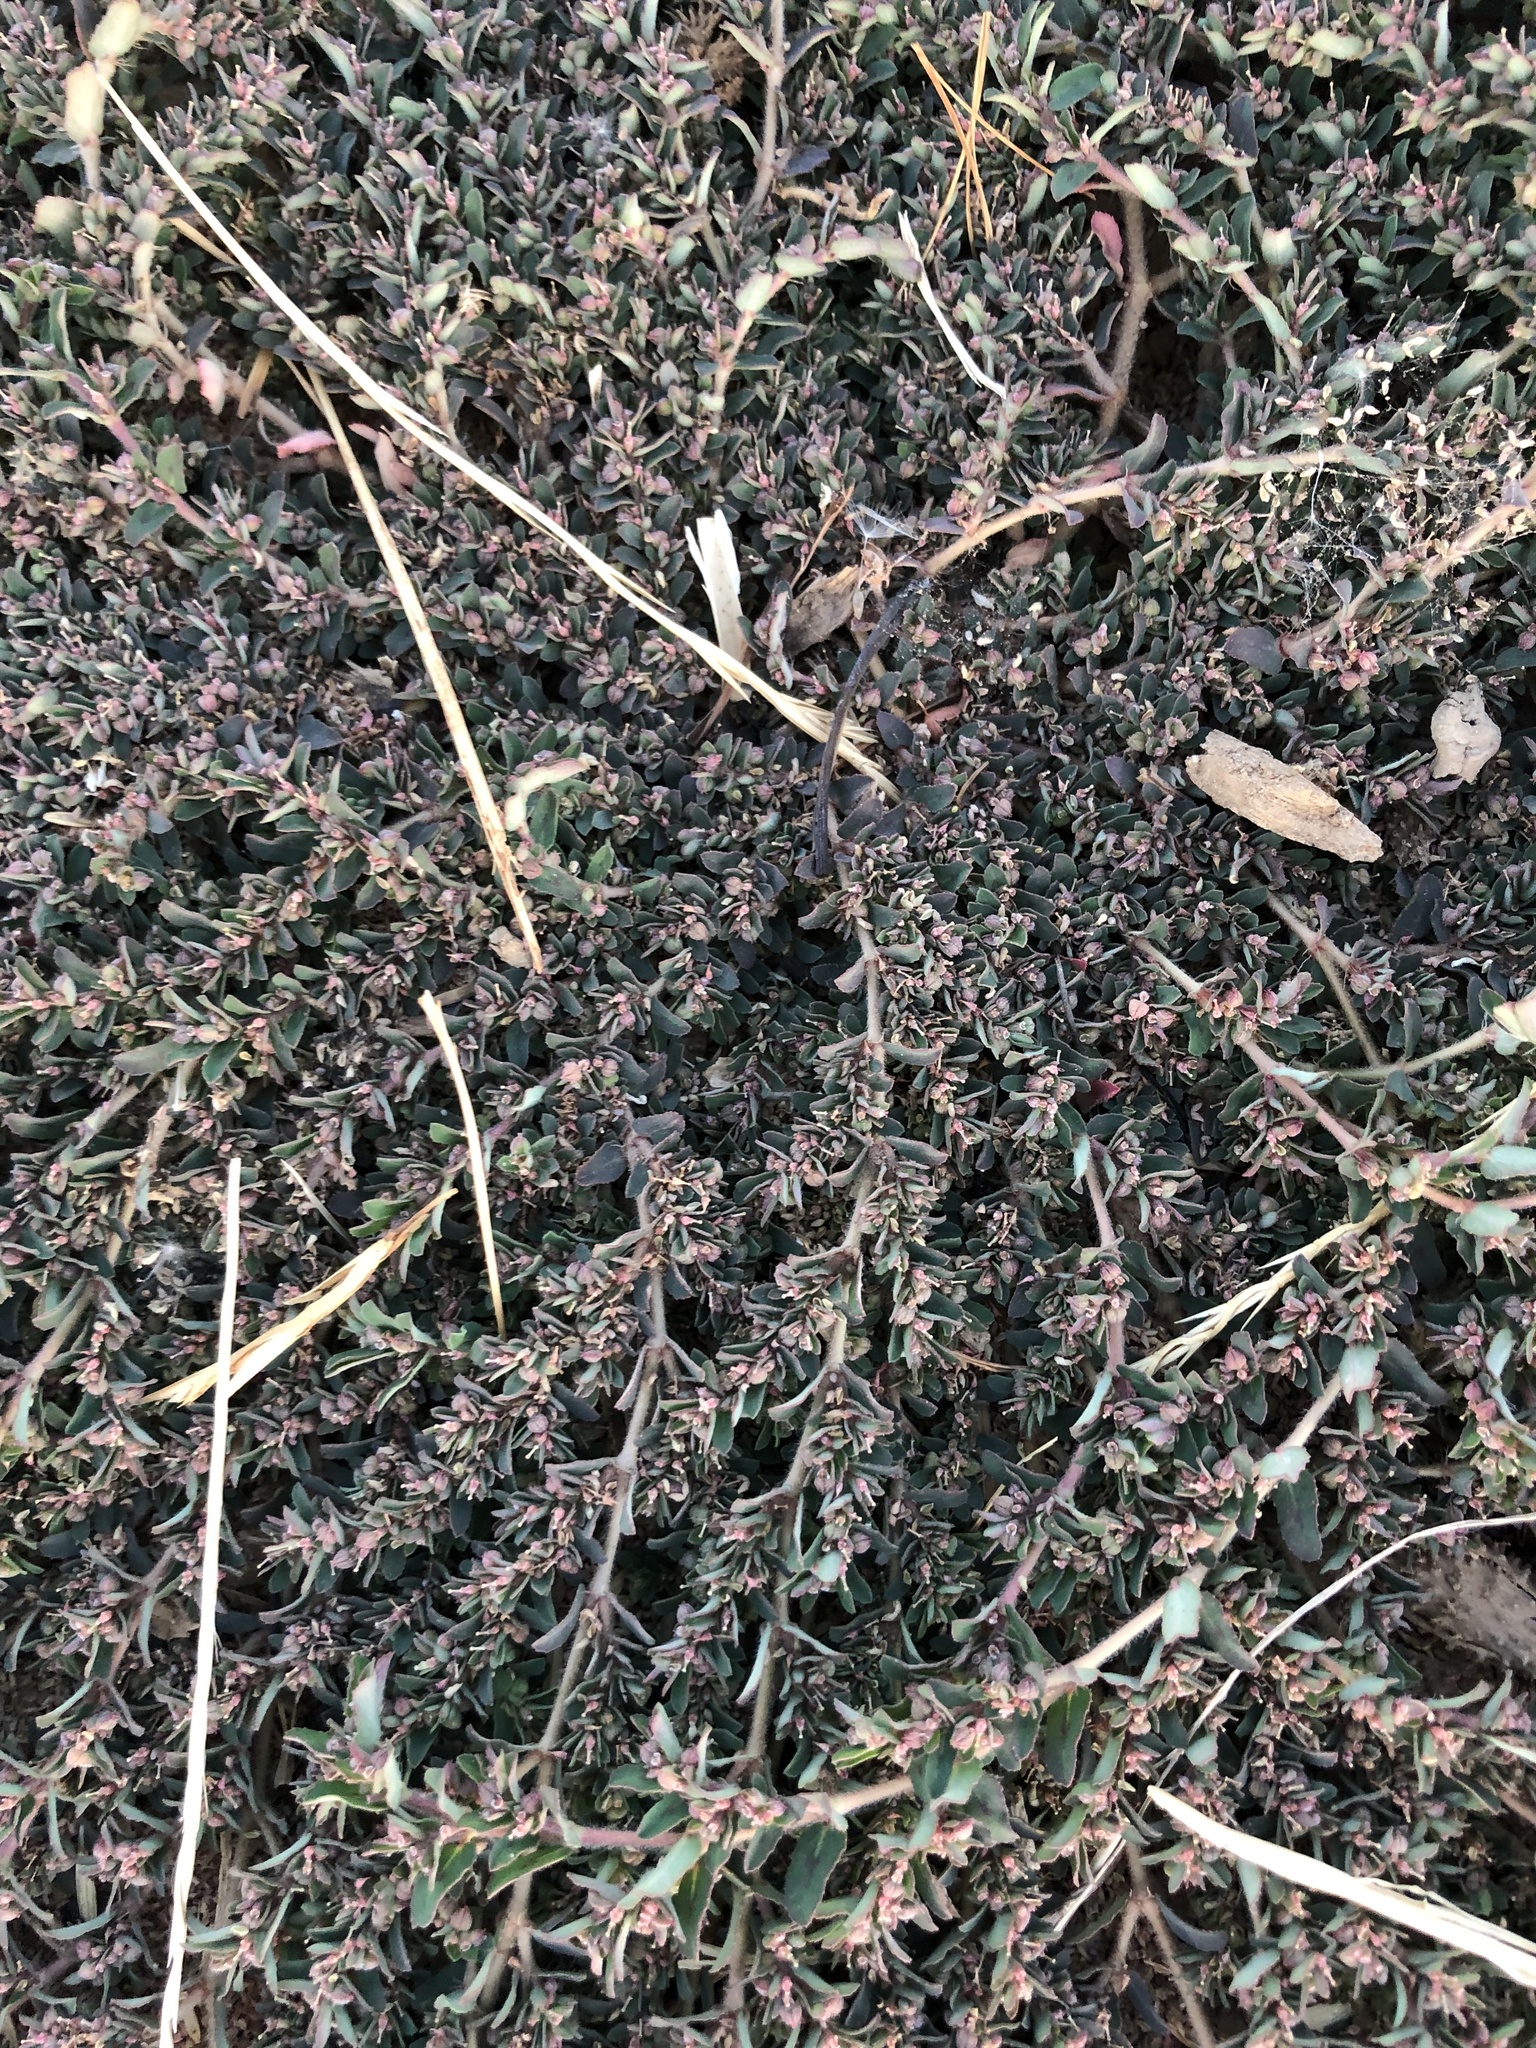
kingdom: Plantae
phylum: Tracheophyta
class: Magnoliopsida
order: Malpighiales
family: Euphorbiaceae
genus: Euphorbia
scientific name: Euphorbia maculata
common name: Spotted spurge
